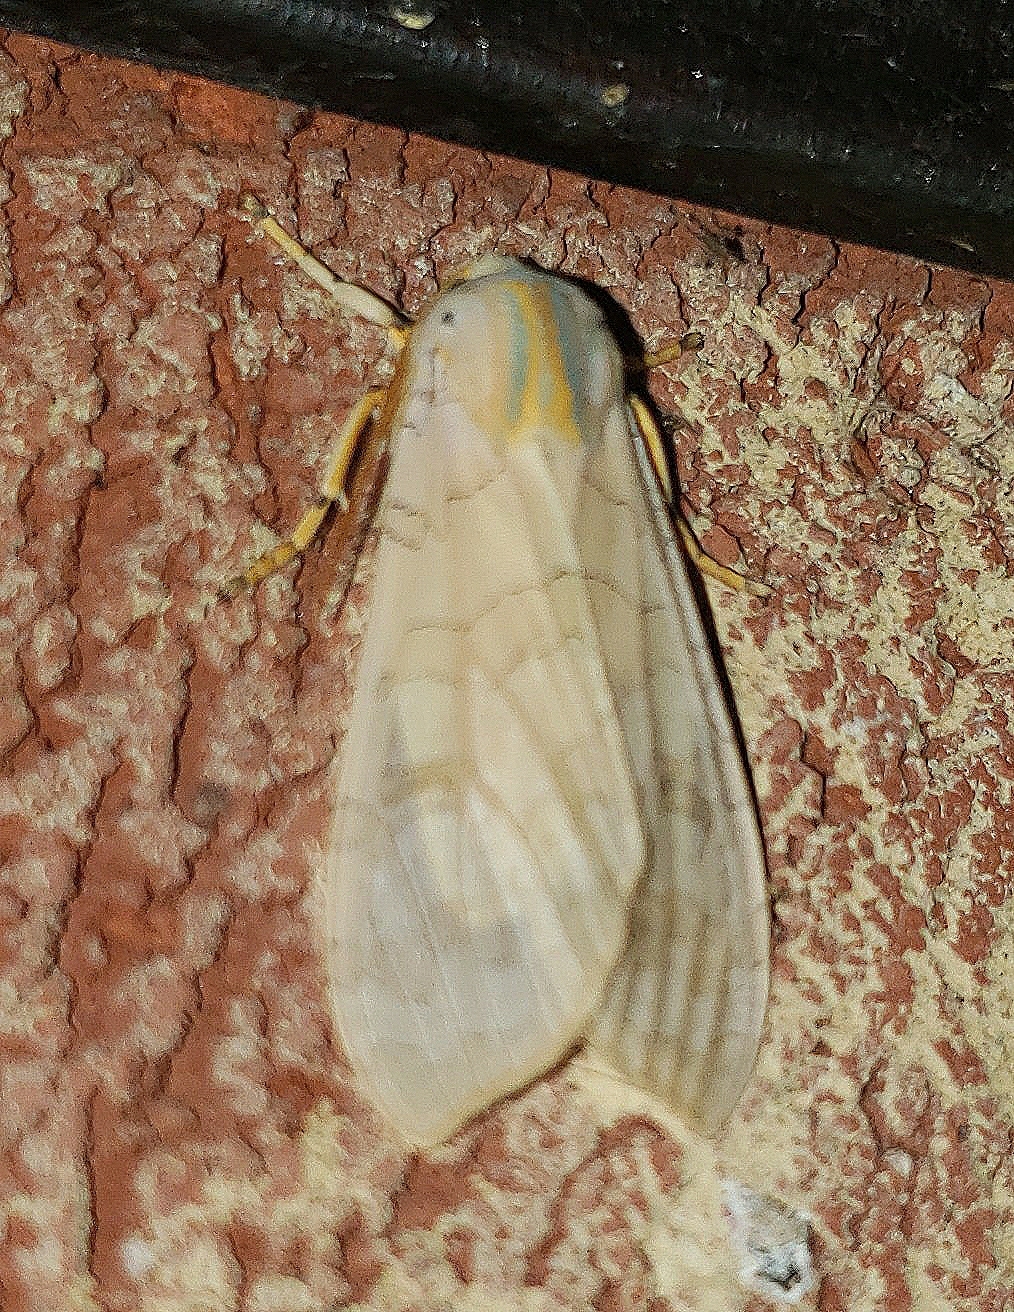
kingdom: Animalia
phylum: Arthropoda
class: Insecta
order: Lepidoptera
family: Erebidae
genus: Halysidota
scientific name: Halysidota
